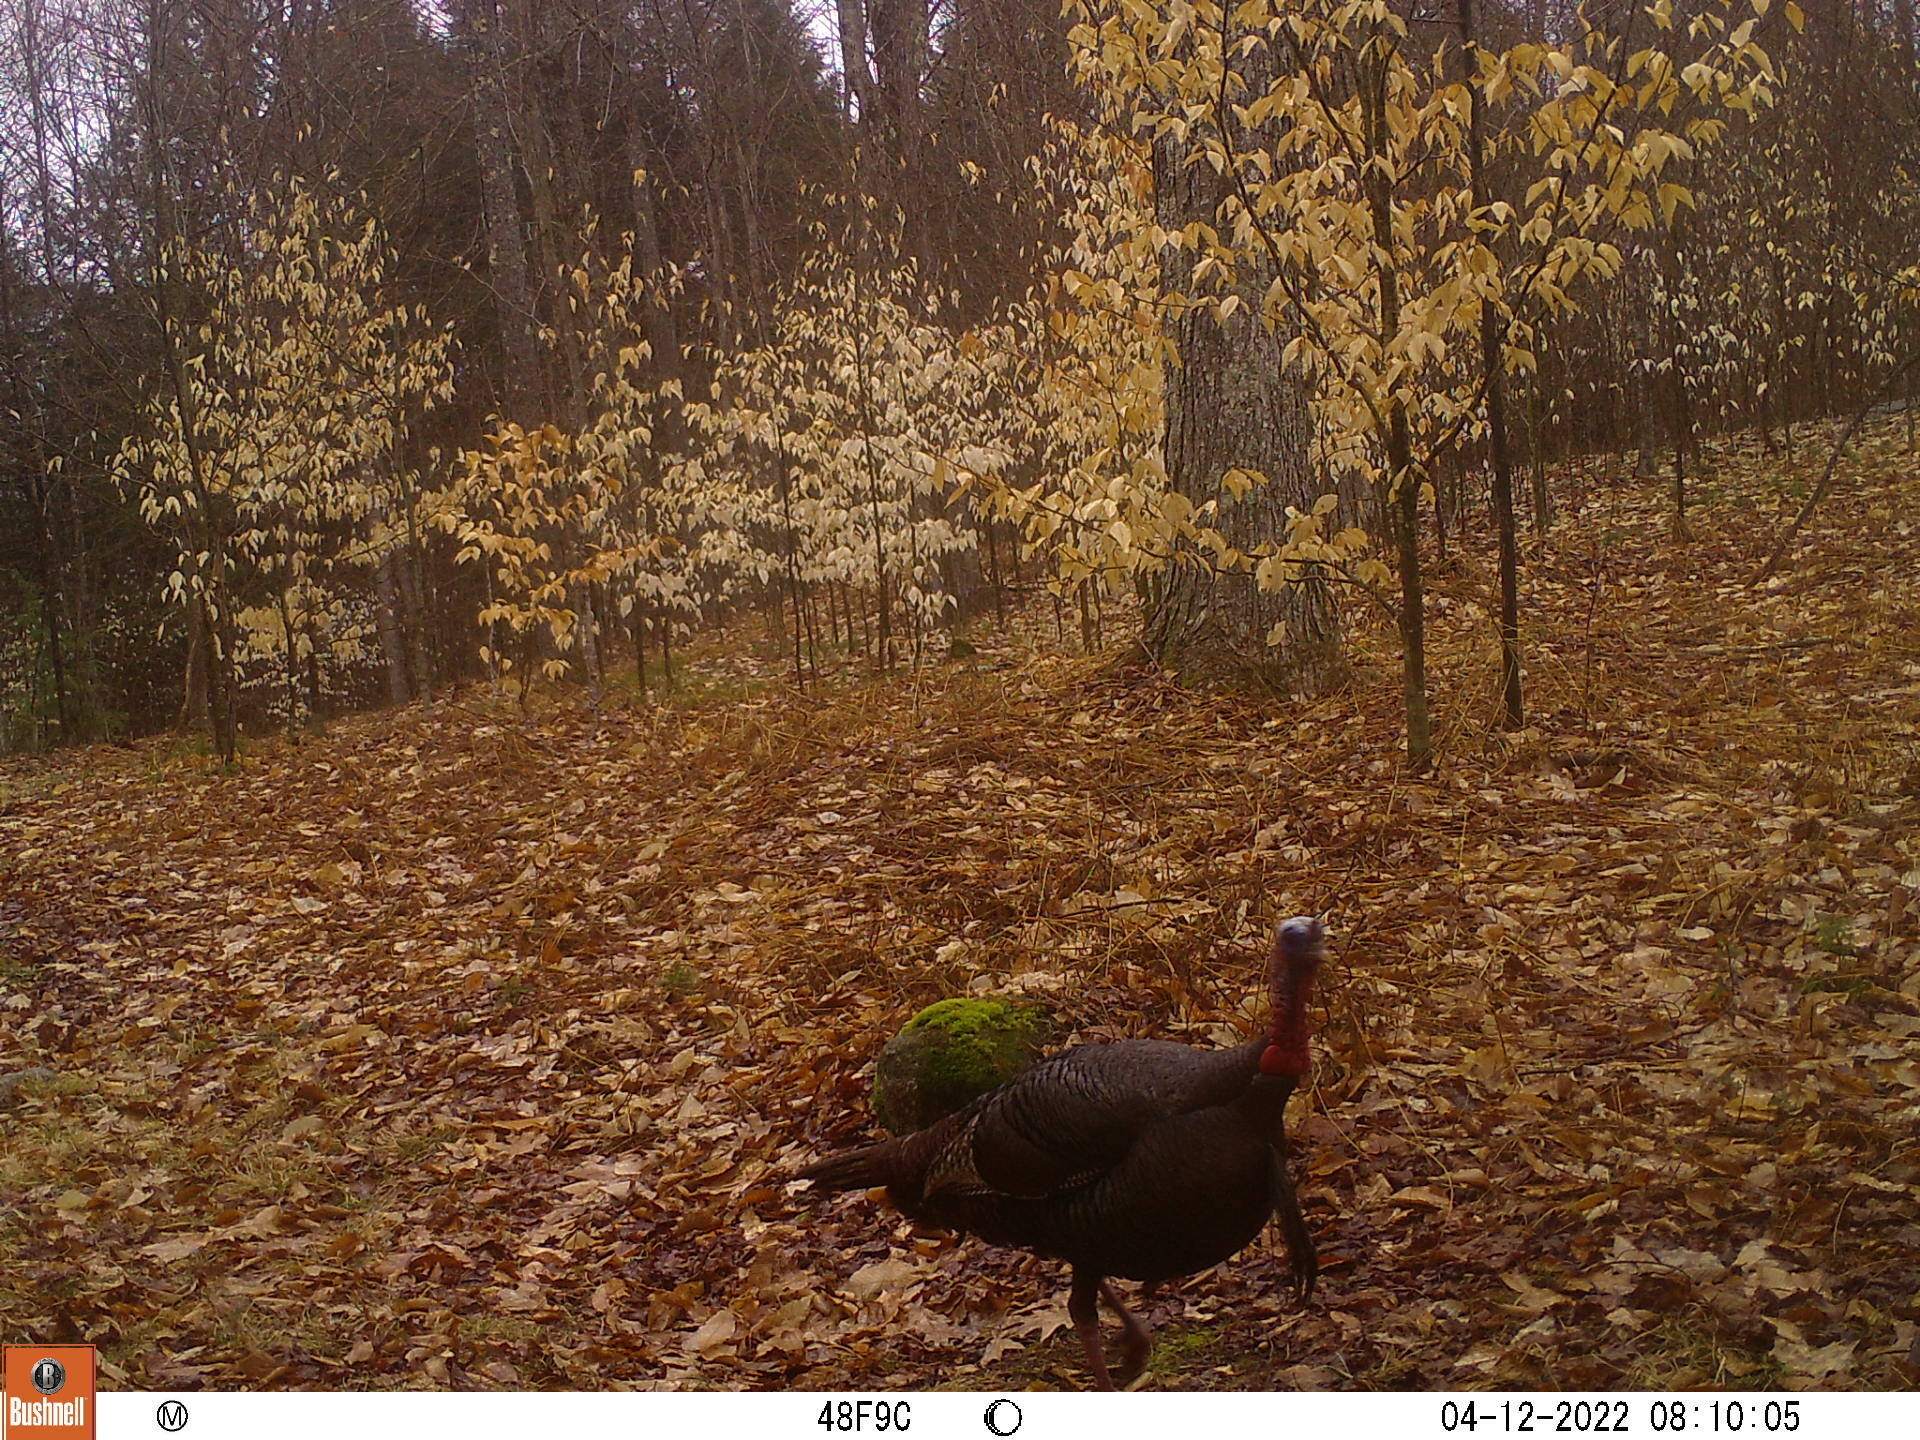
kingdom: Animalia
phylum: Chordata
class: Aves
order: Galliformes
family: Phasianidae
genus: Meleagris
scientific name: Meleagris gallopavo
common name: Wild turkey
